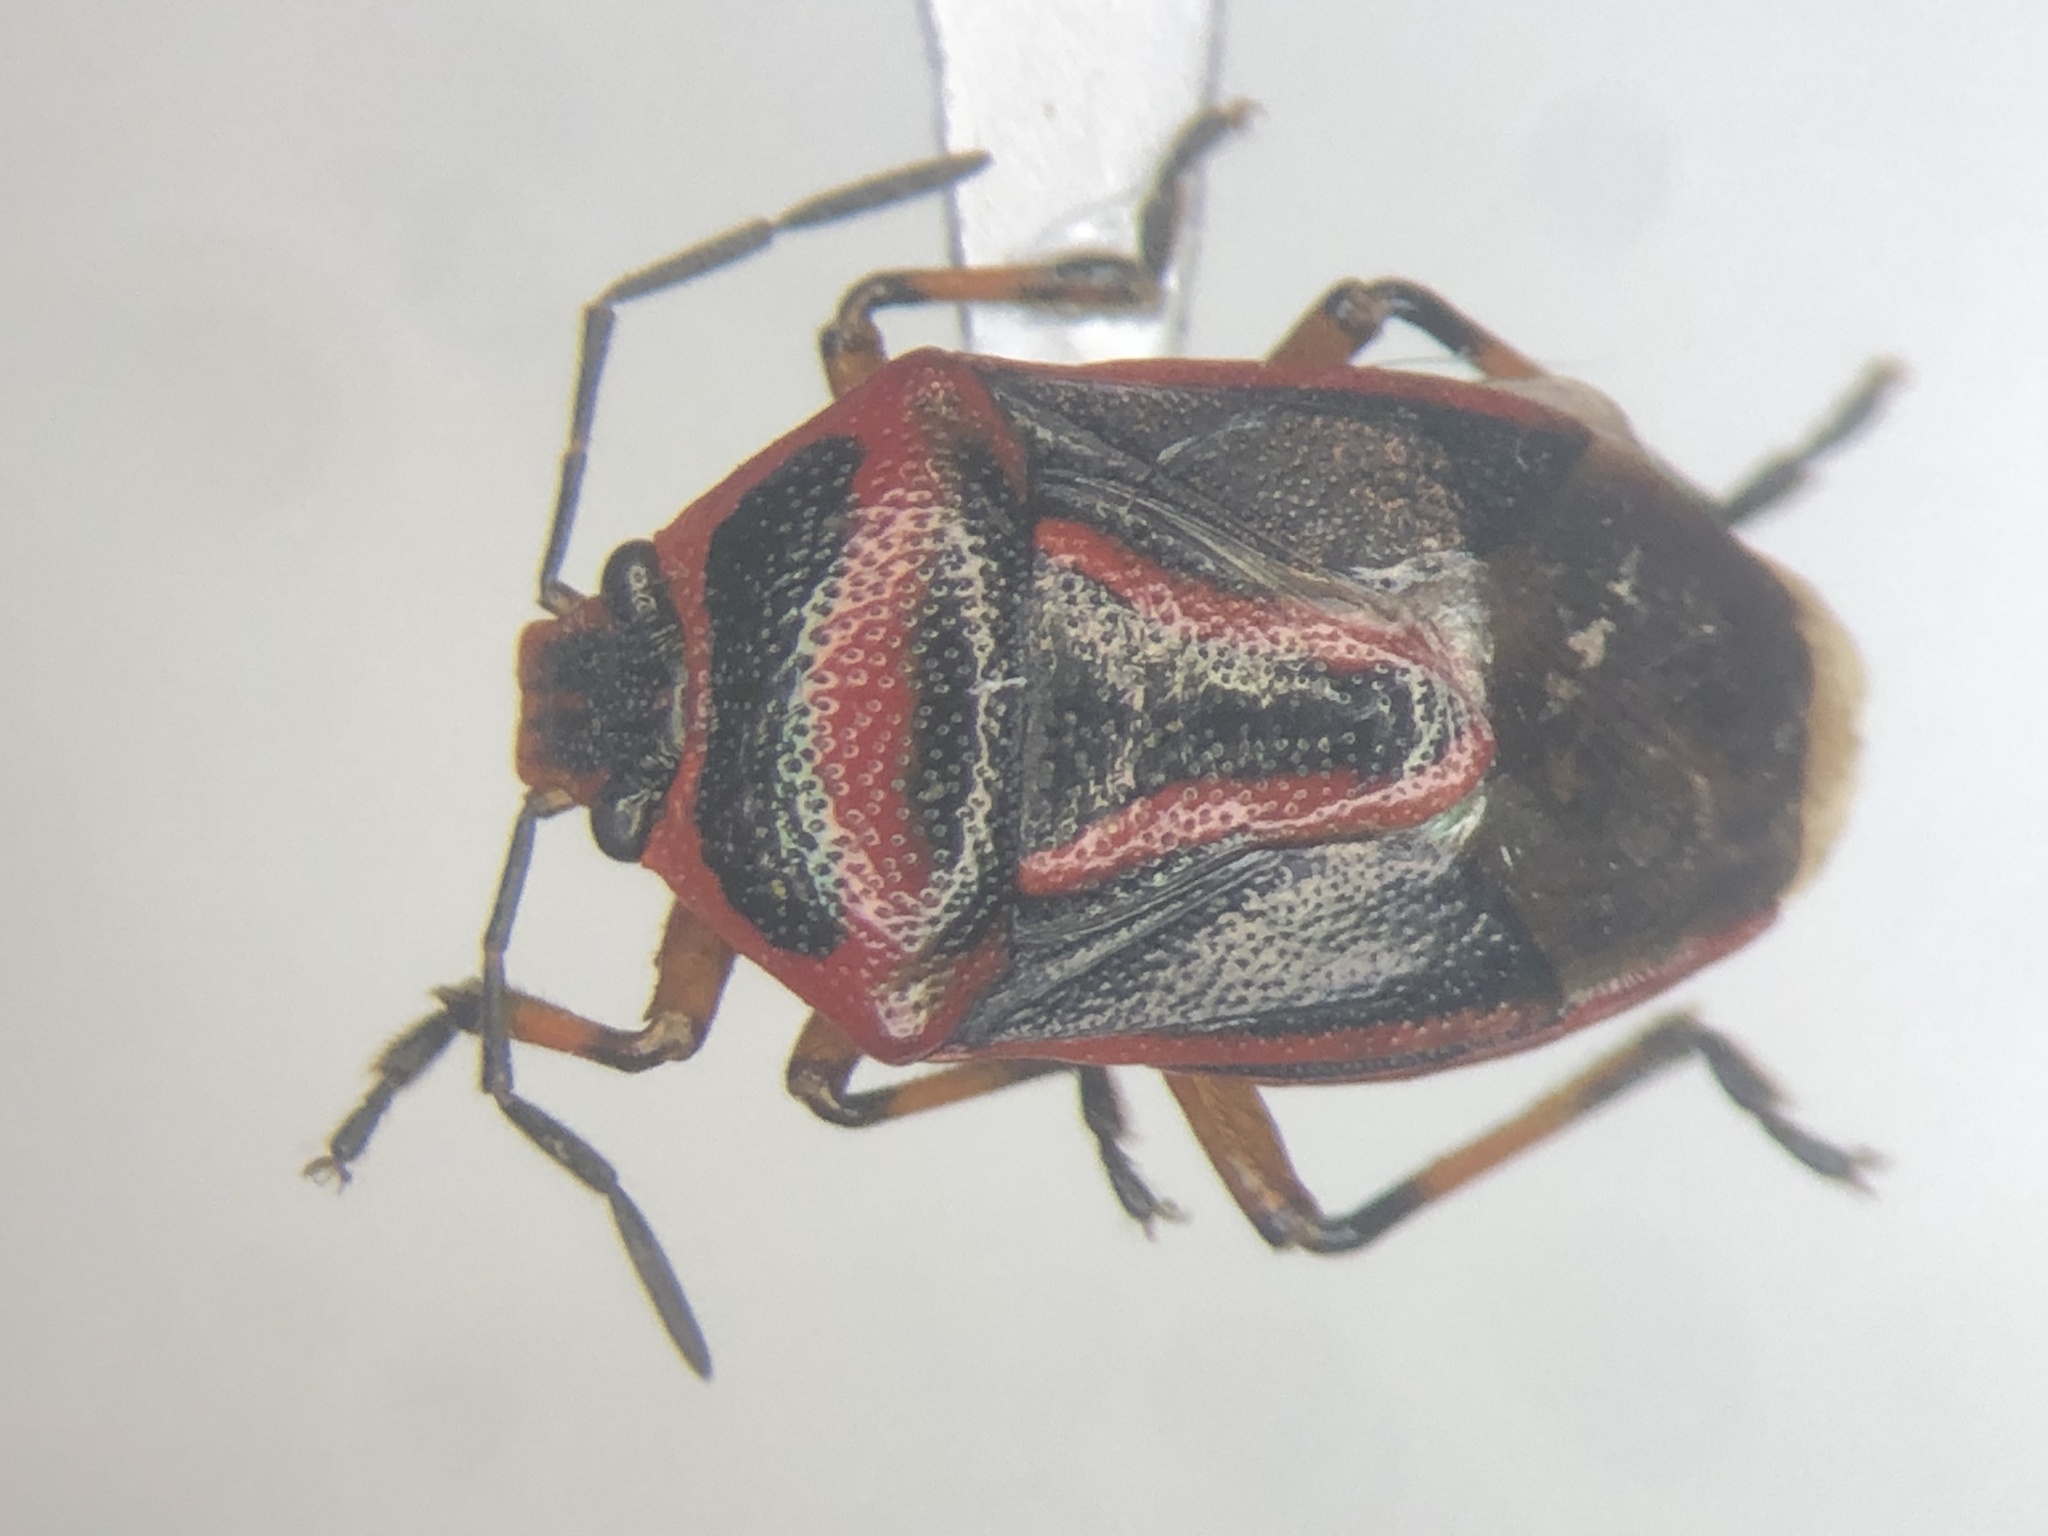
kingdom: Animalia
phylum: Arthropoda
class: Insecta
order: Hemiptera
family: Pentatomidae
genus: Perillus
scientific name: Perillus exaptus
